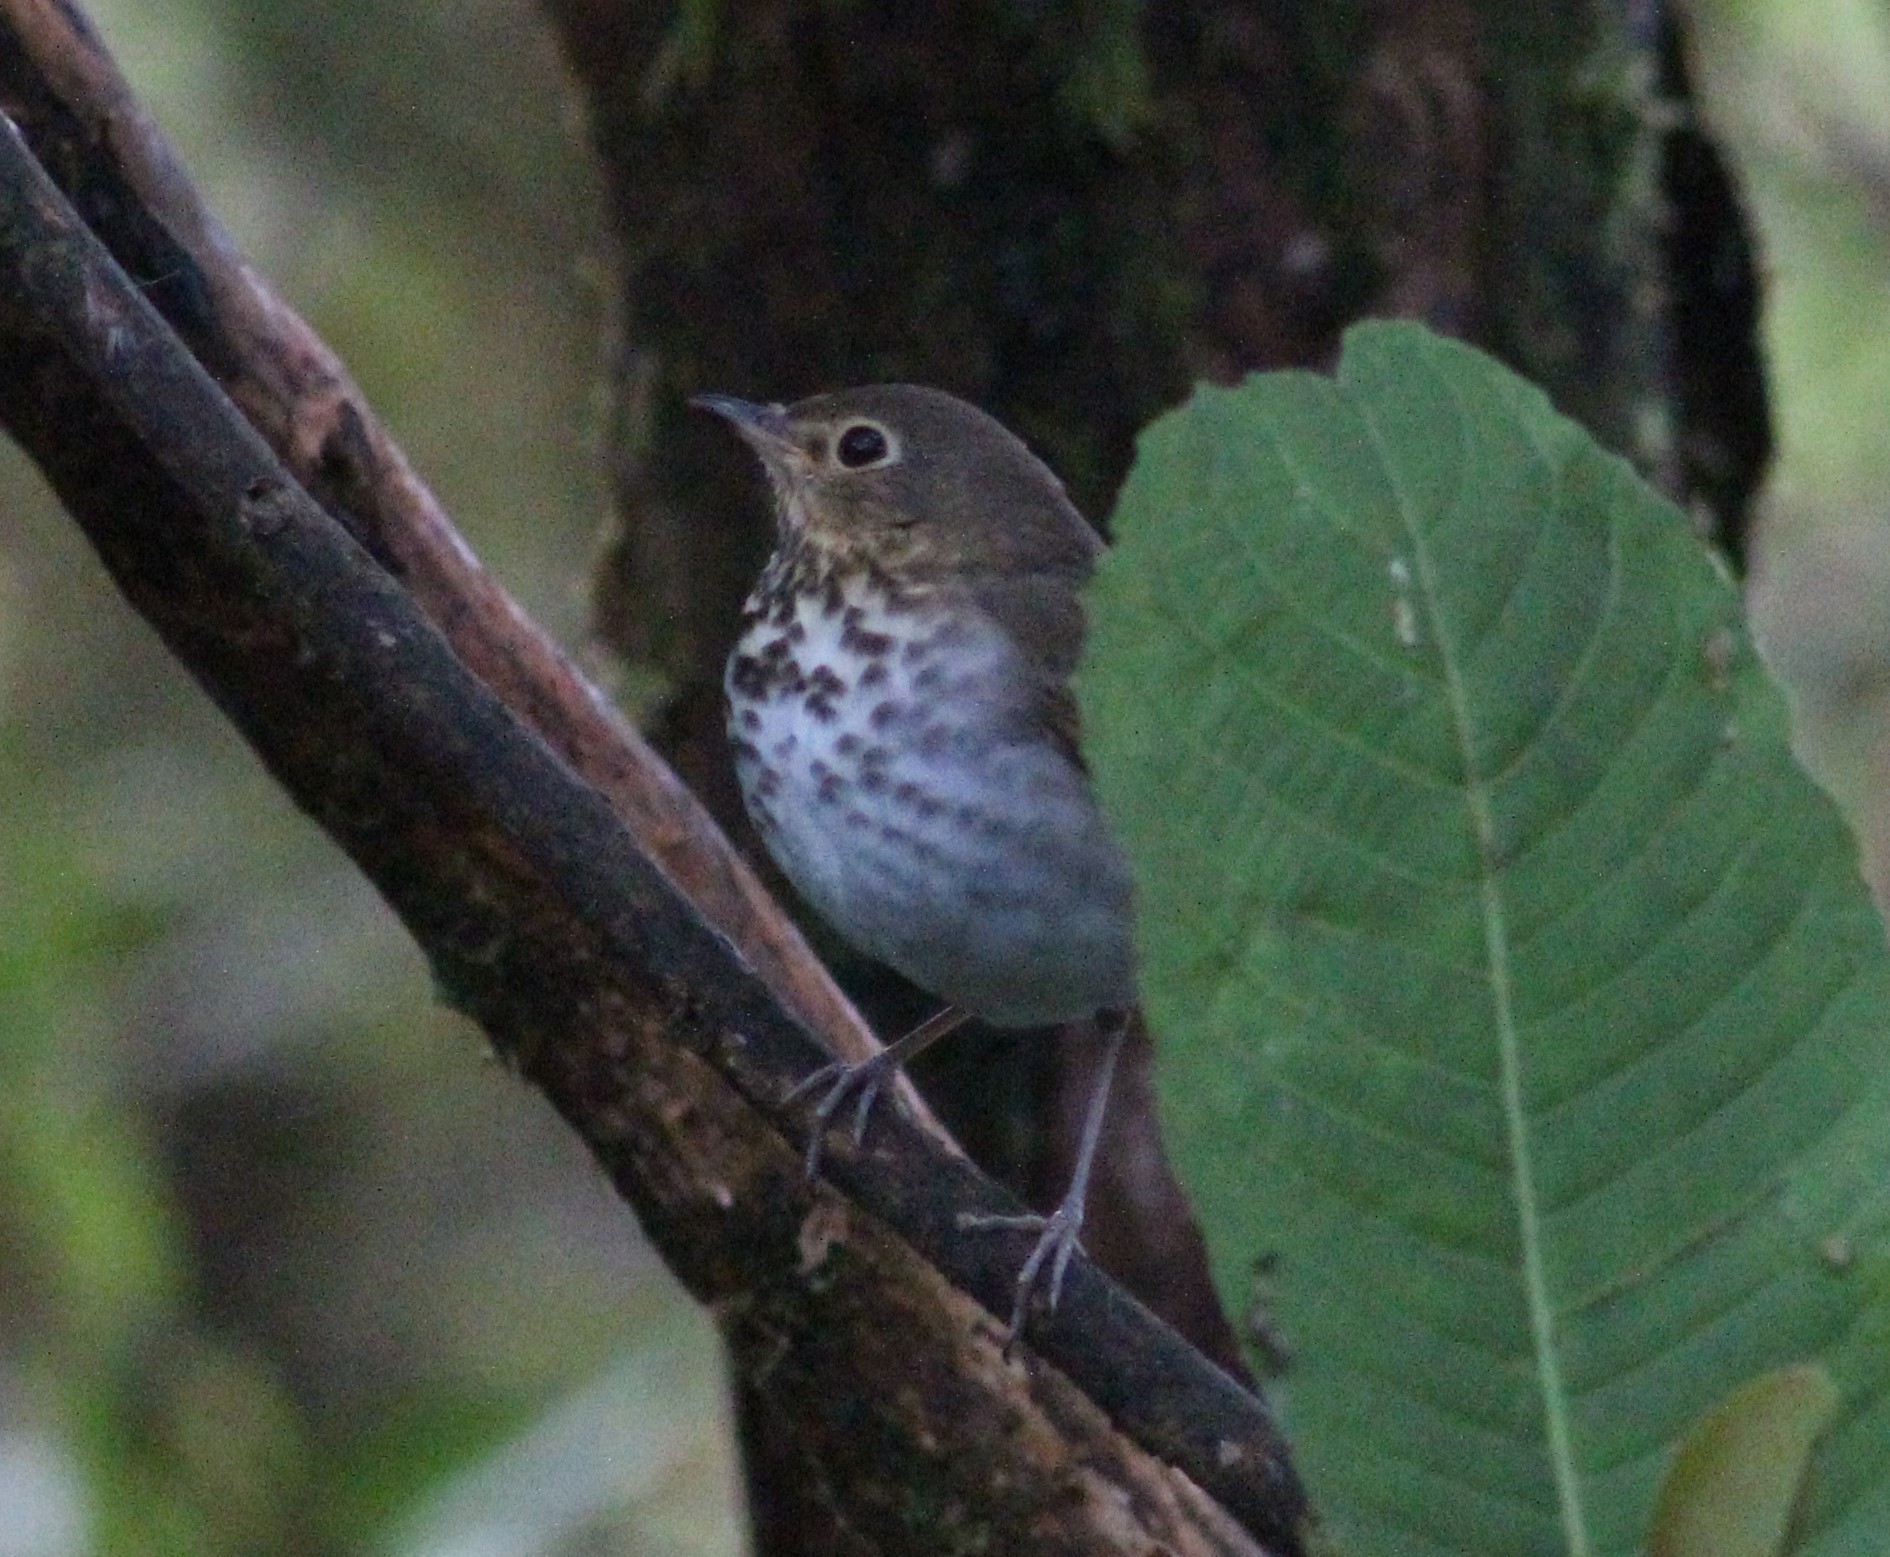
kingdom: Animalia
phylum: Chordata
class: Aves
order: Passeriformes
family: Turdidae
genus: Catharus
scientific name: Catharus ustulatus
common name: Swainson's thrush
